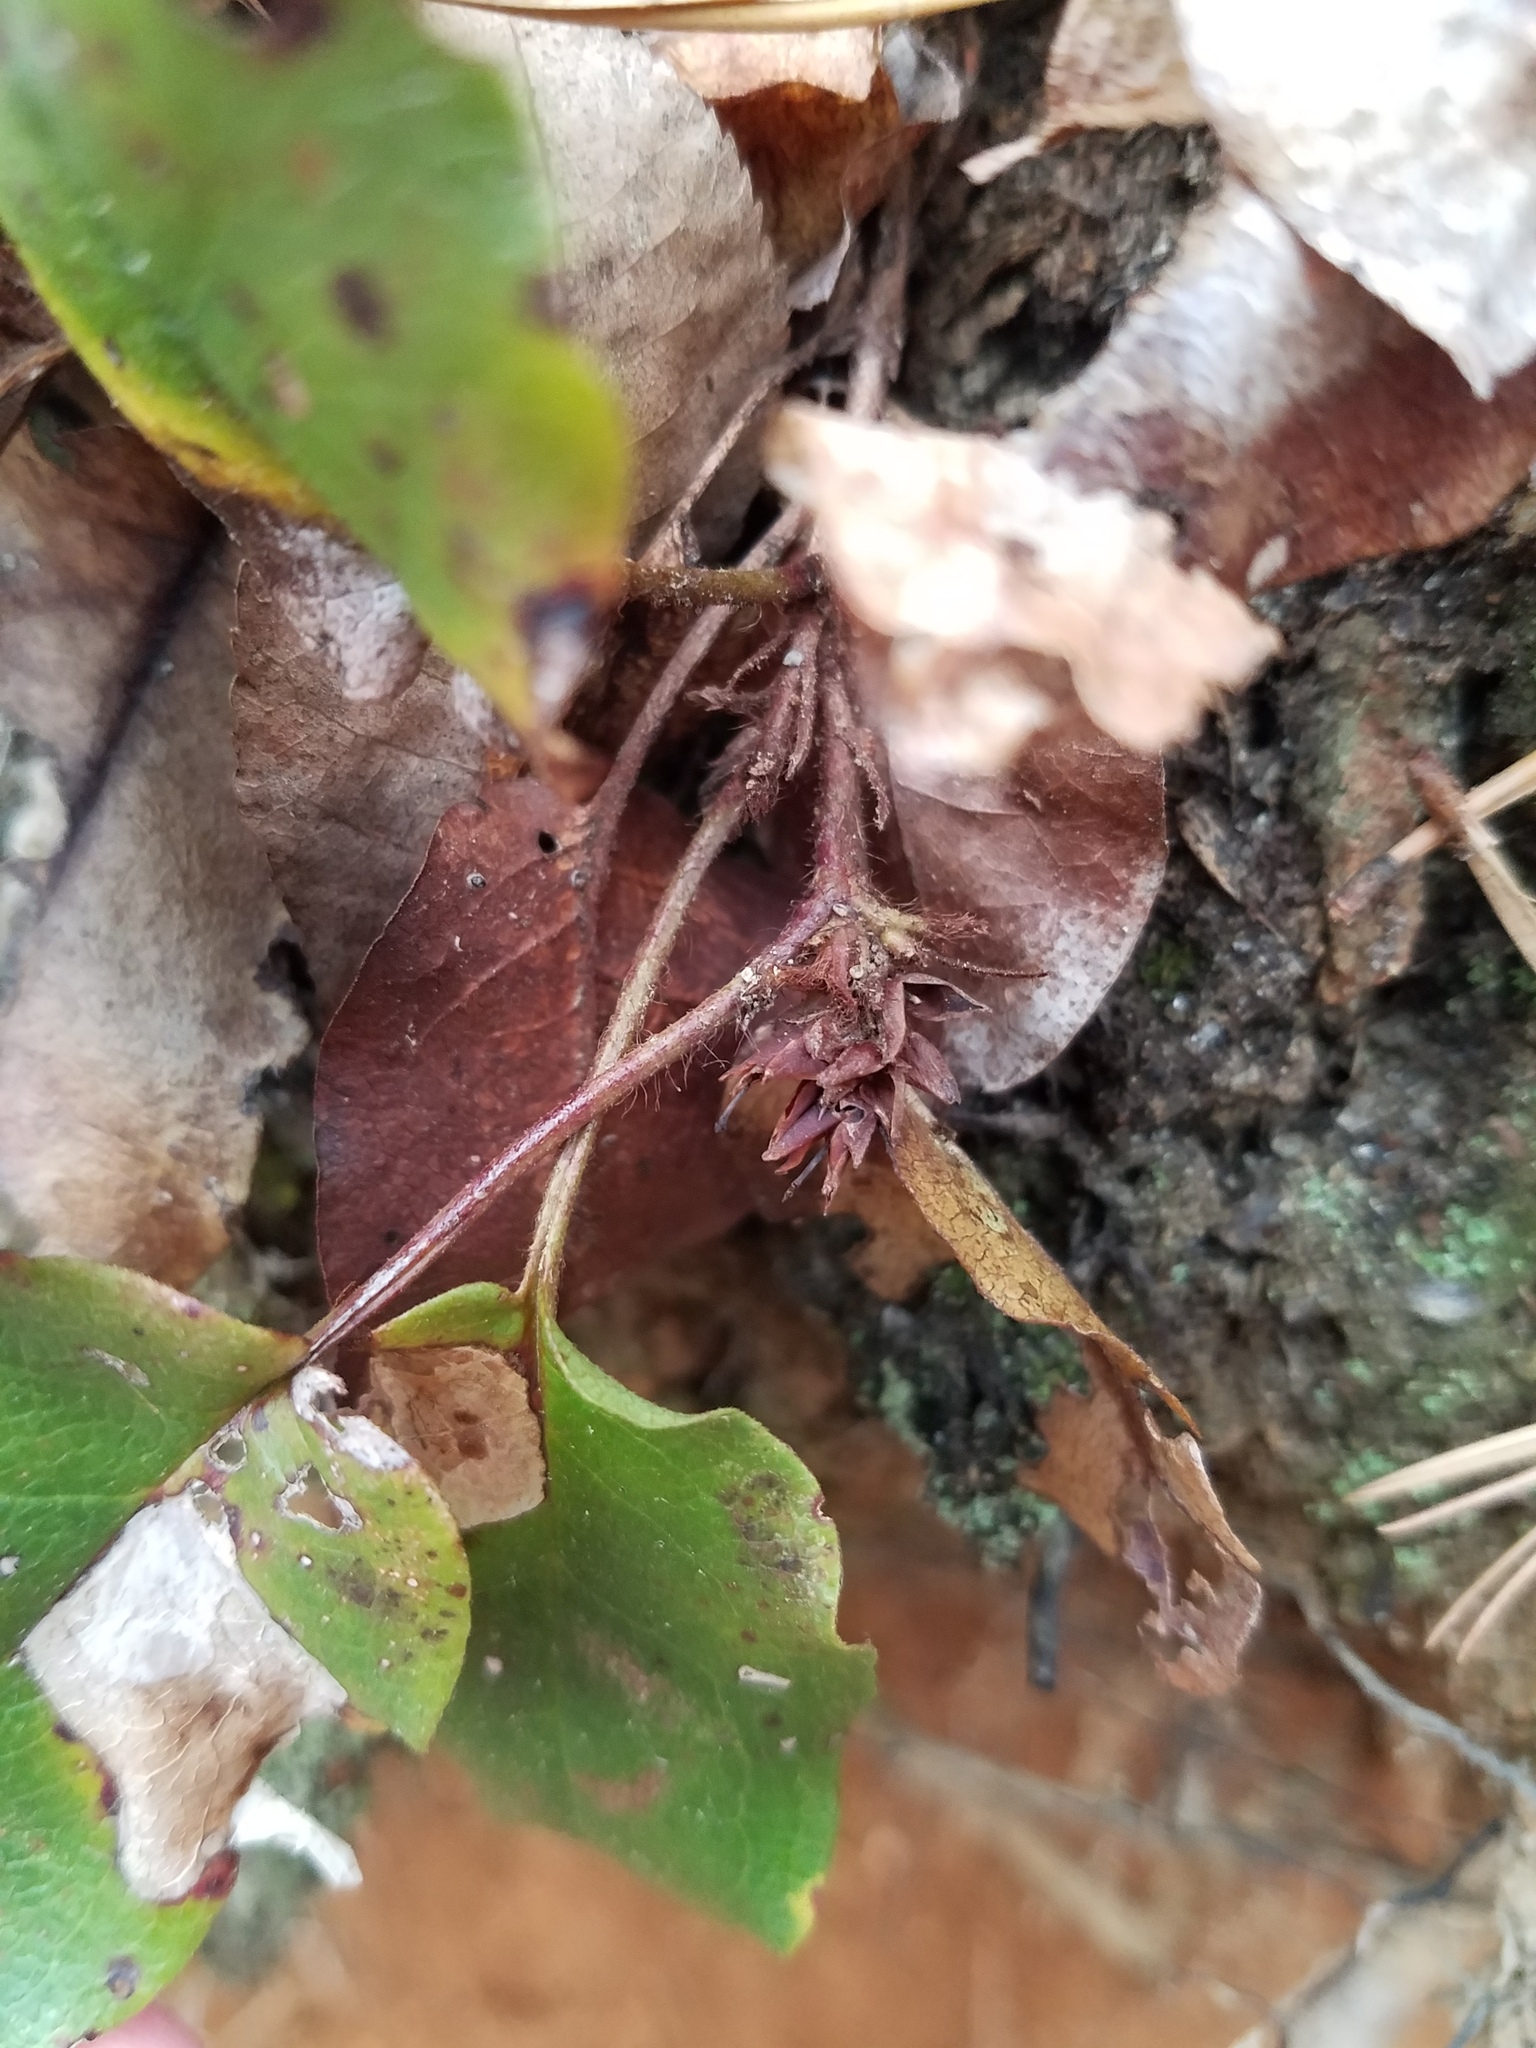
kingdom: Plantae
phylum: Tracheophyta
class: Magnoliopsida
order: Ericales
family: Ericaceae
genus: Epigaea
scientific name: Epigaea repens
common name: Gravelroot
